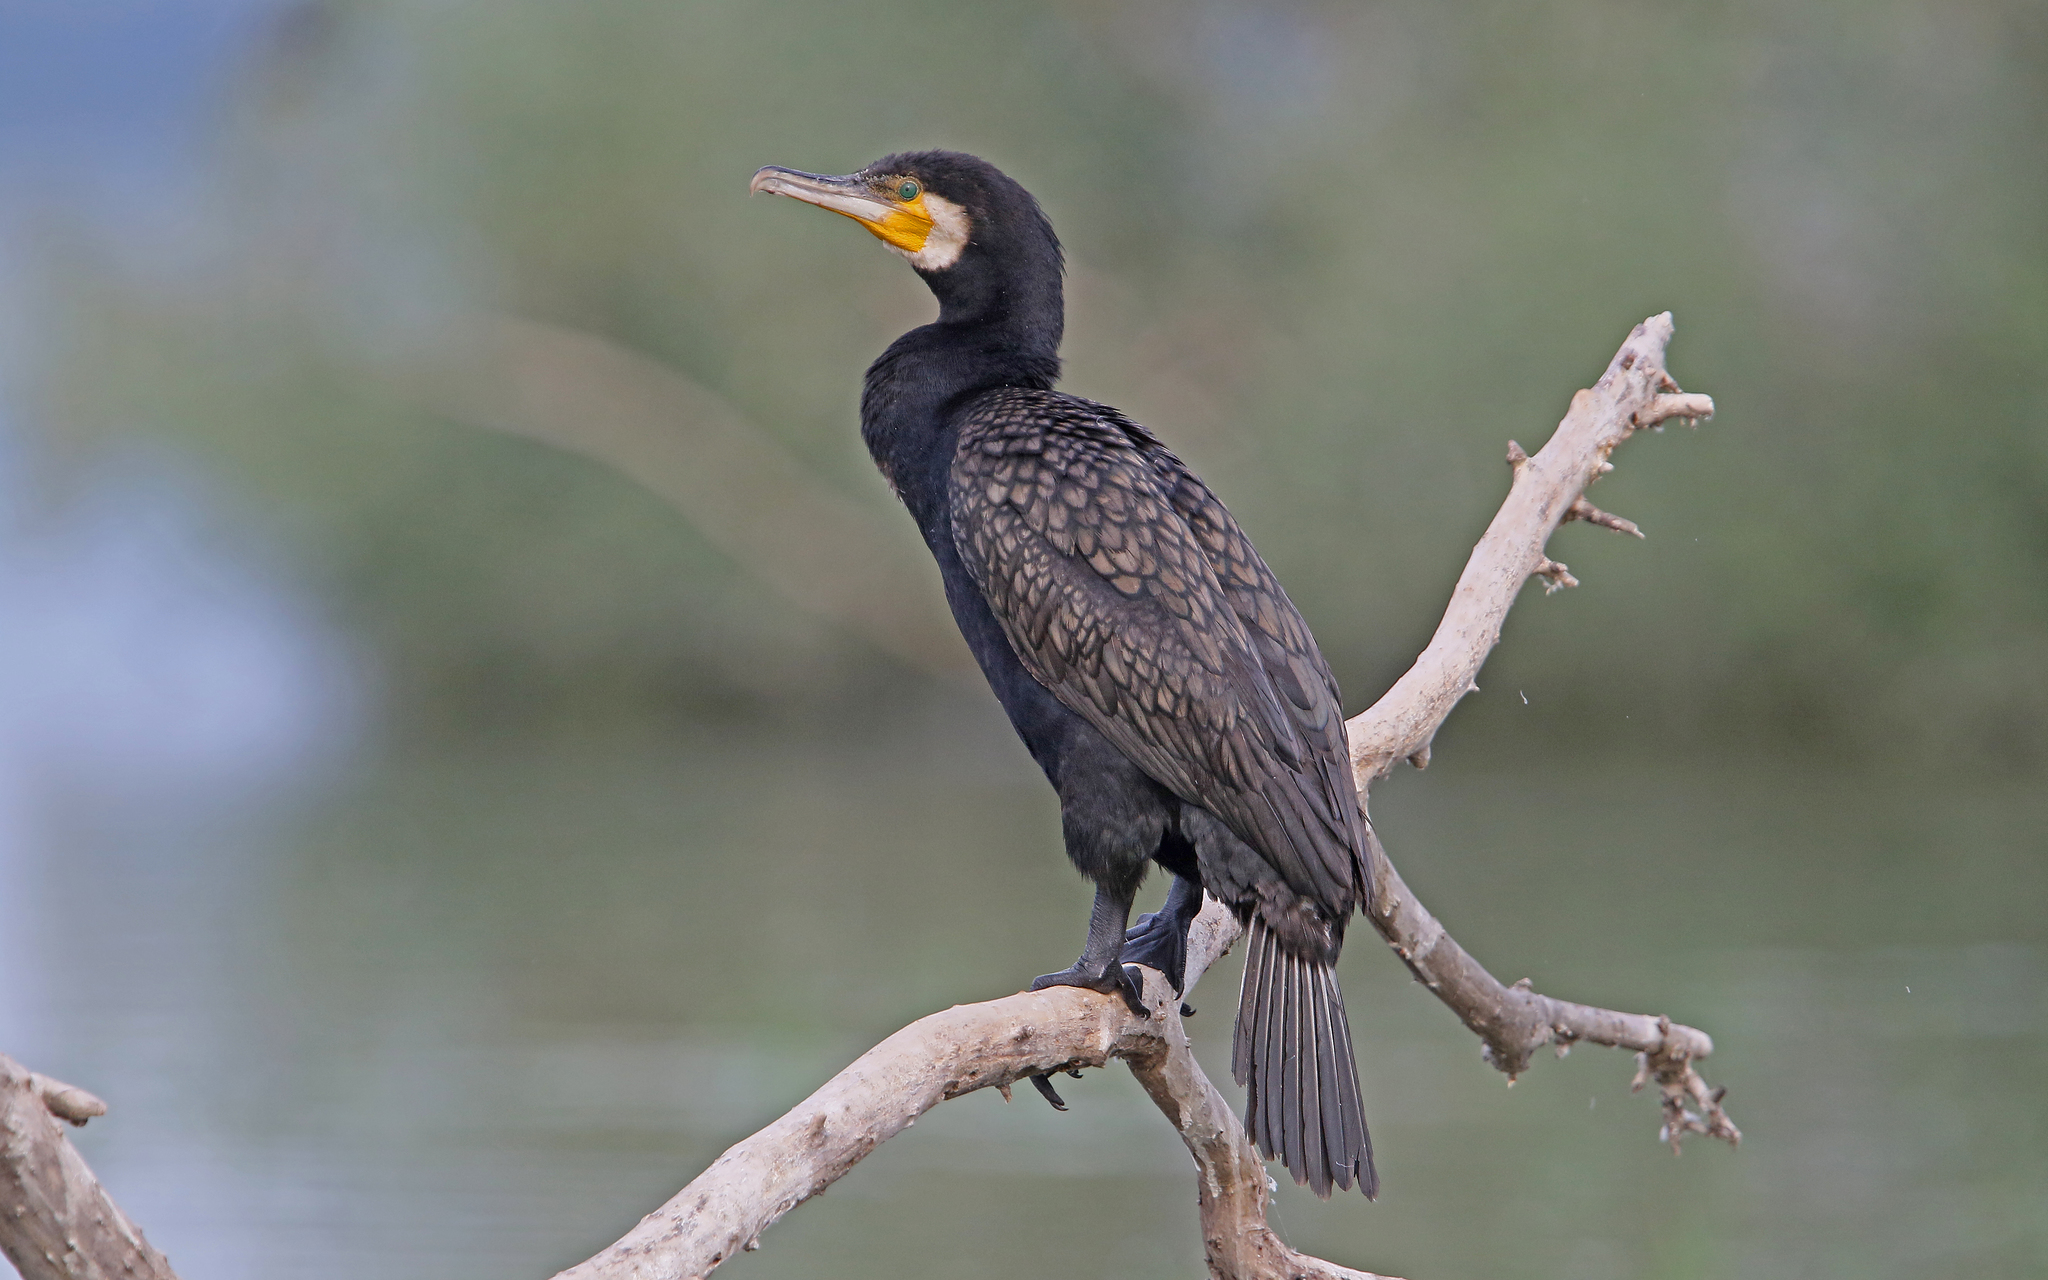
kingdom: Animalia
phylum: Chordata
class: Aves
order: Suliformes
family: Phalacrocoracidae
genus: Phalacrocorax
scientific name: Phalacrocorax carbo
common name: Great cormorant
